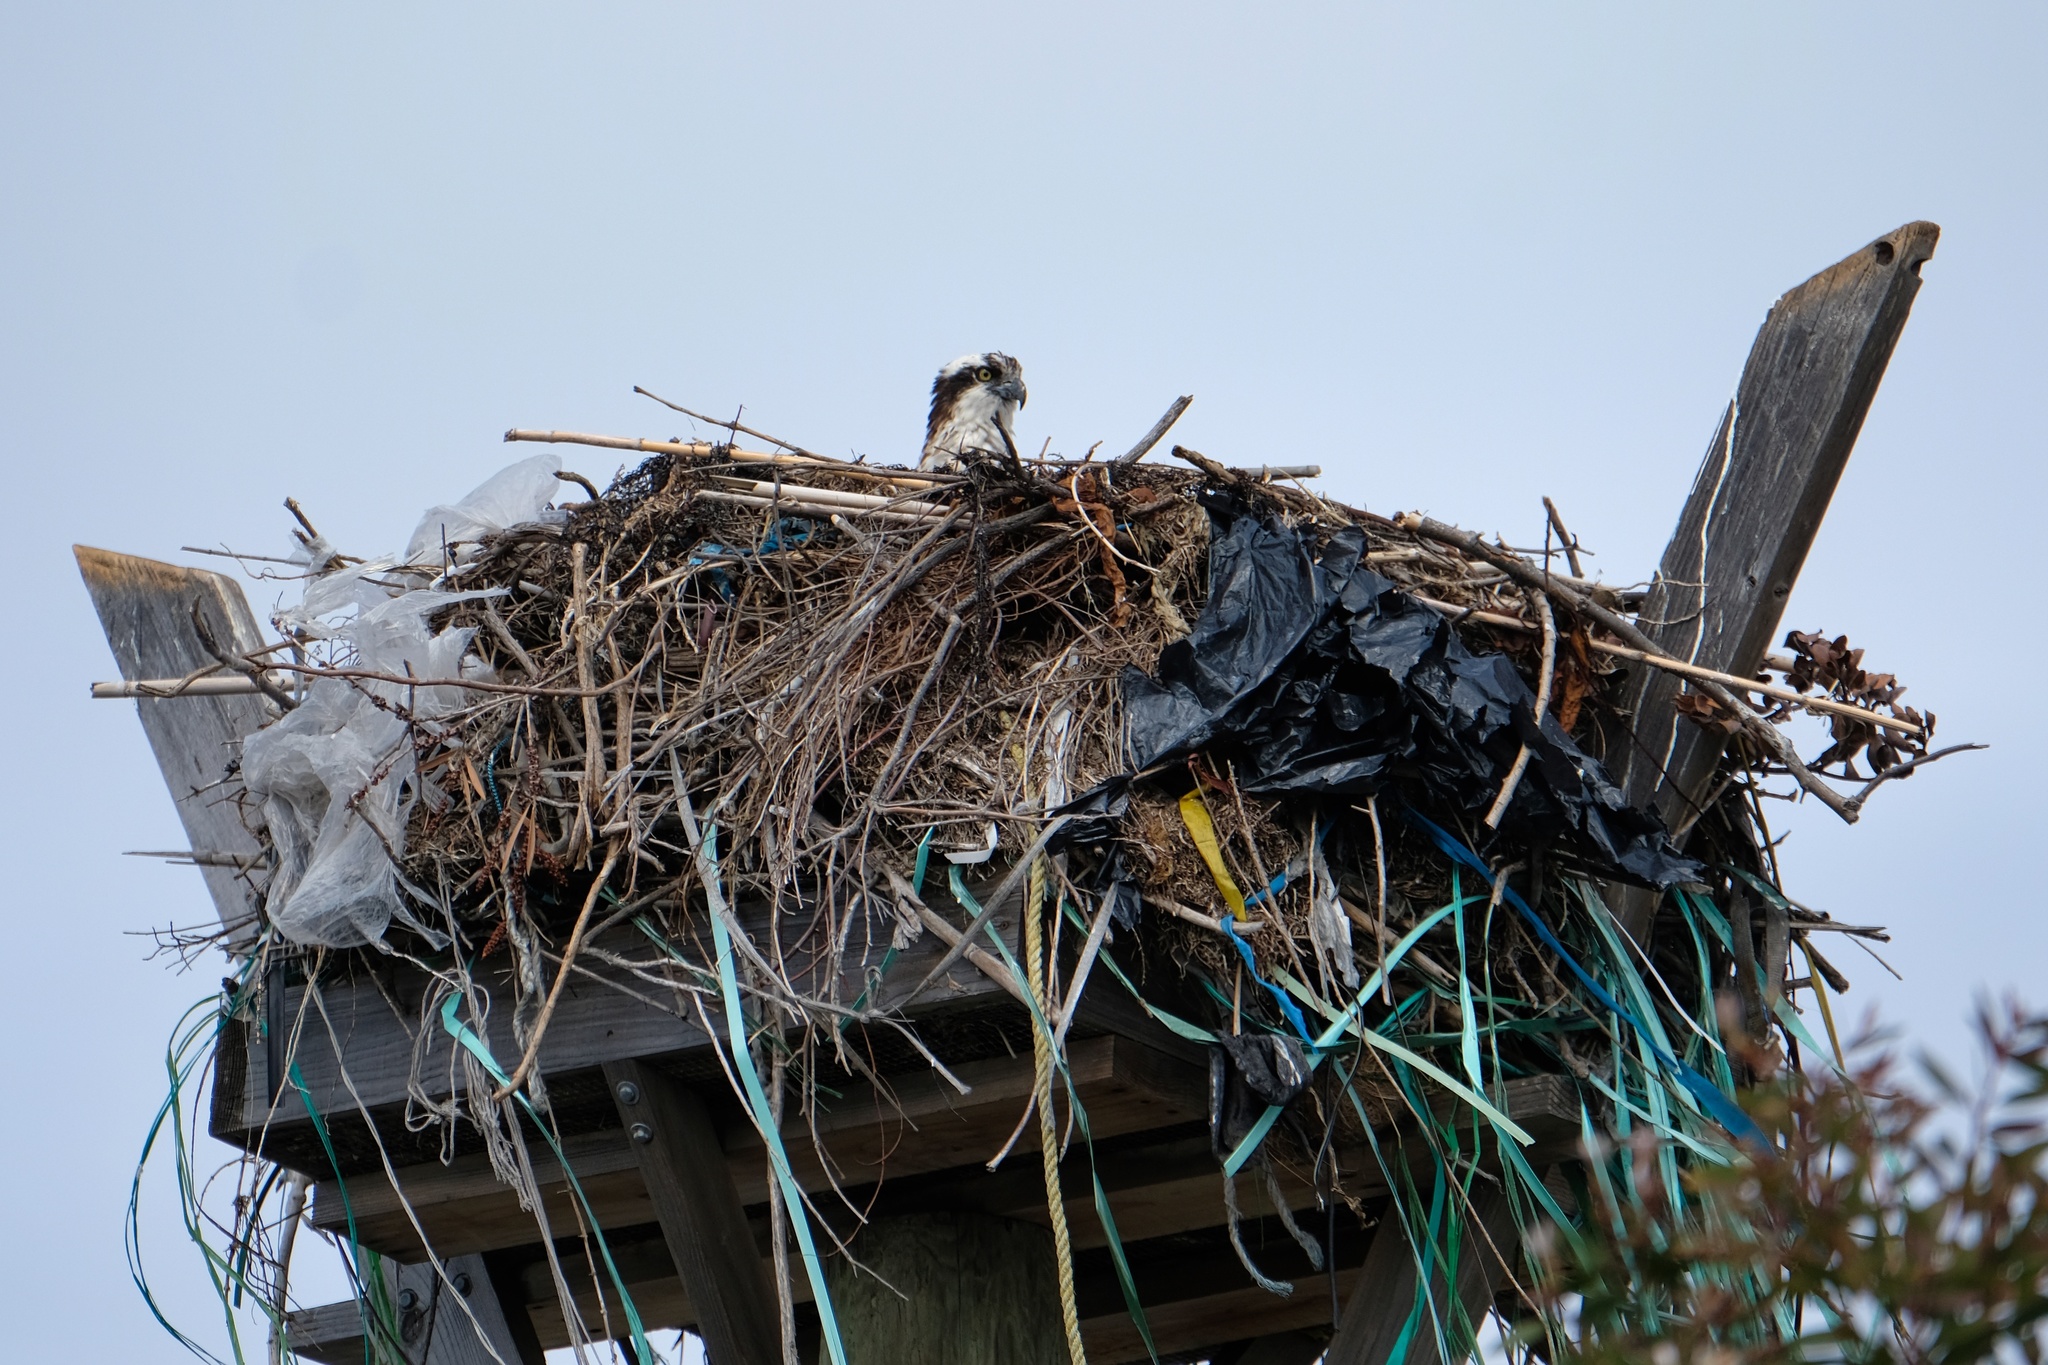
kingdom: Animalia
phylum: Chordata
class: Aves
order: Accipitriformes
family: Pandionidae
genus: Pandion
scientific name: Pandion haliaetus
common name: Osprey
